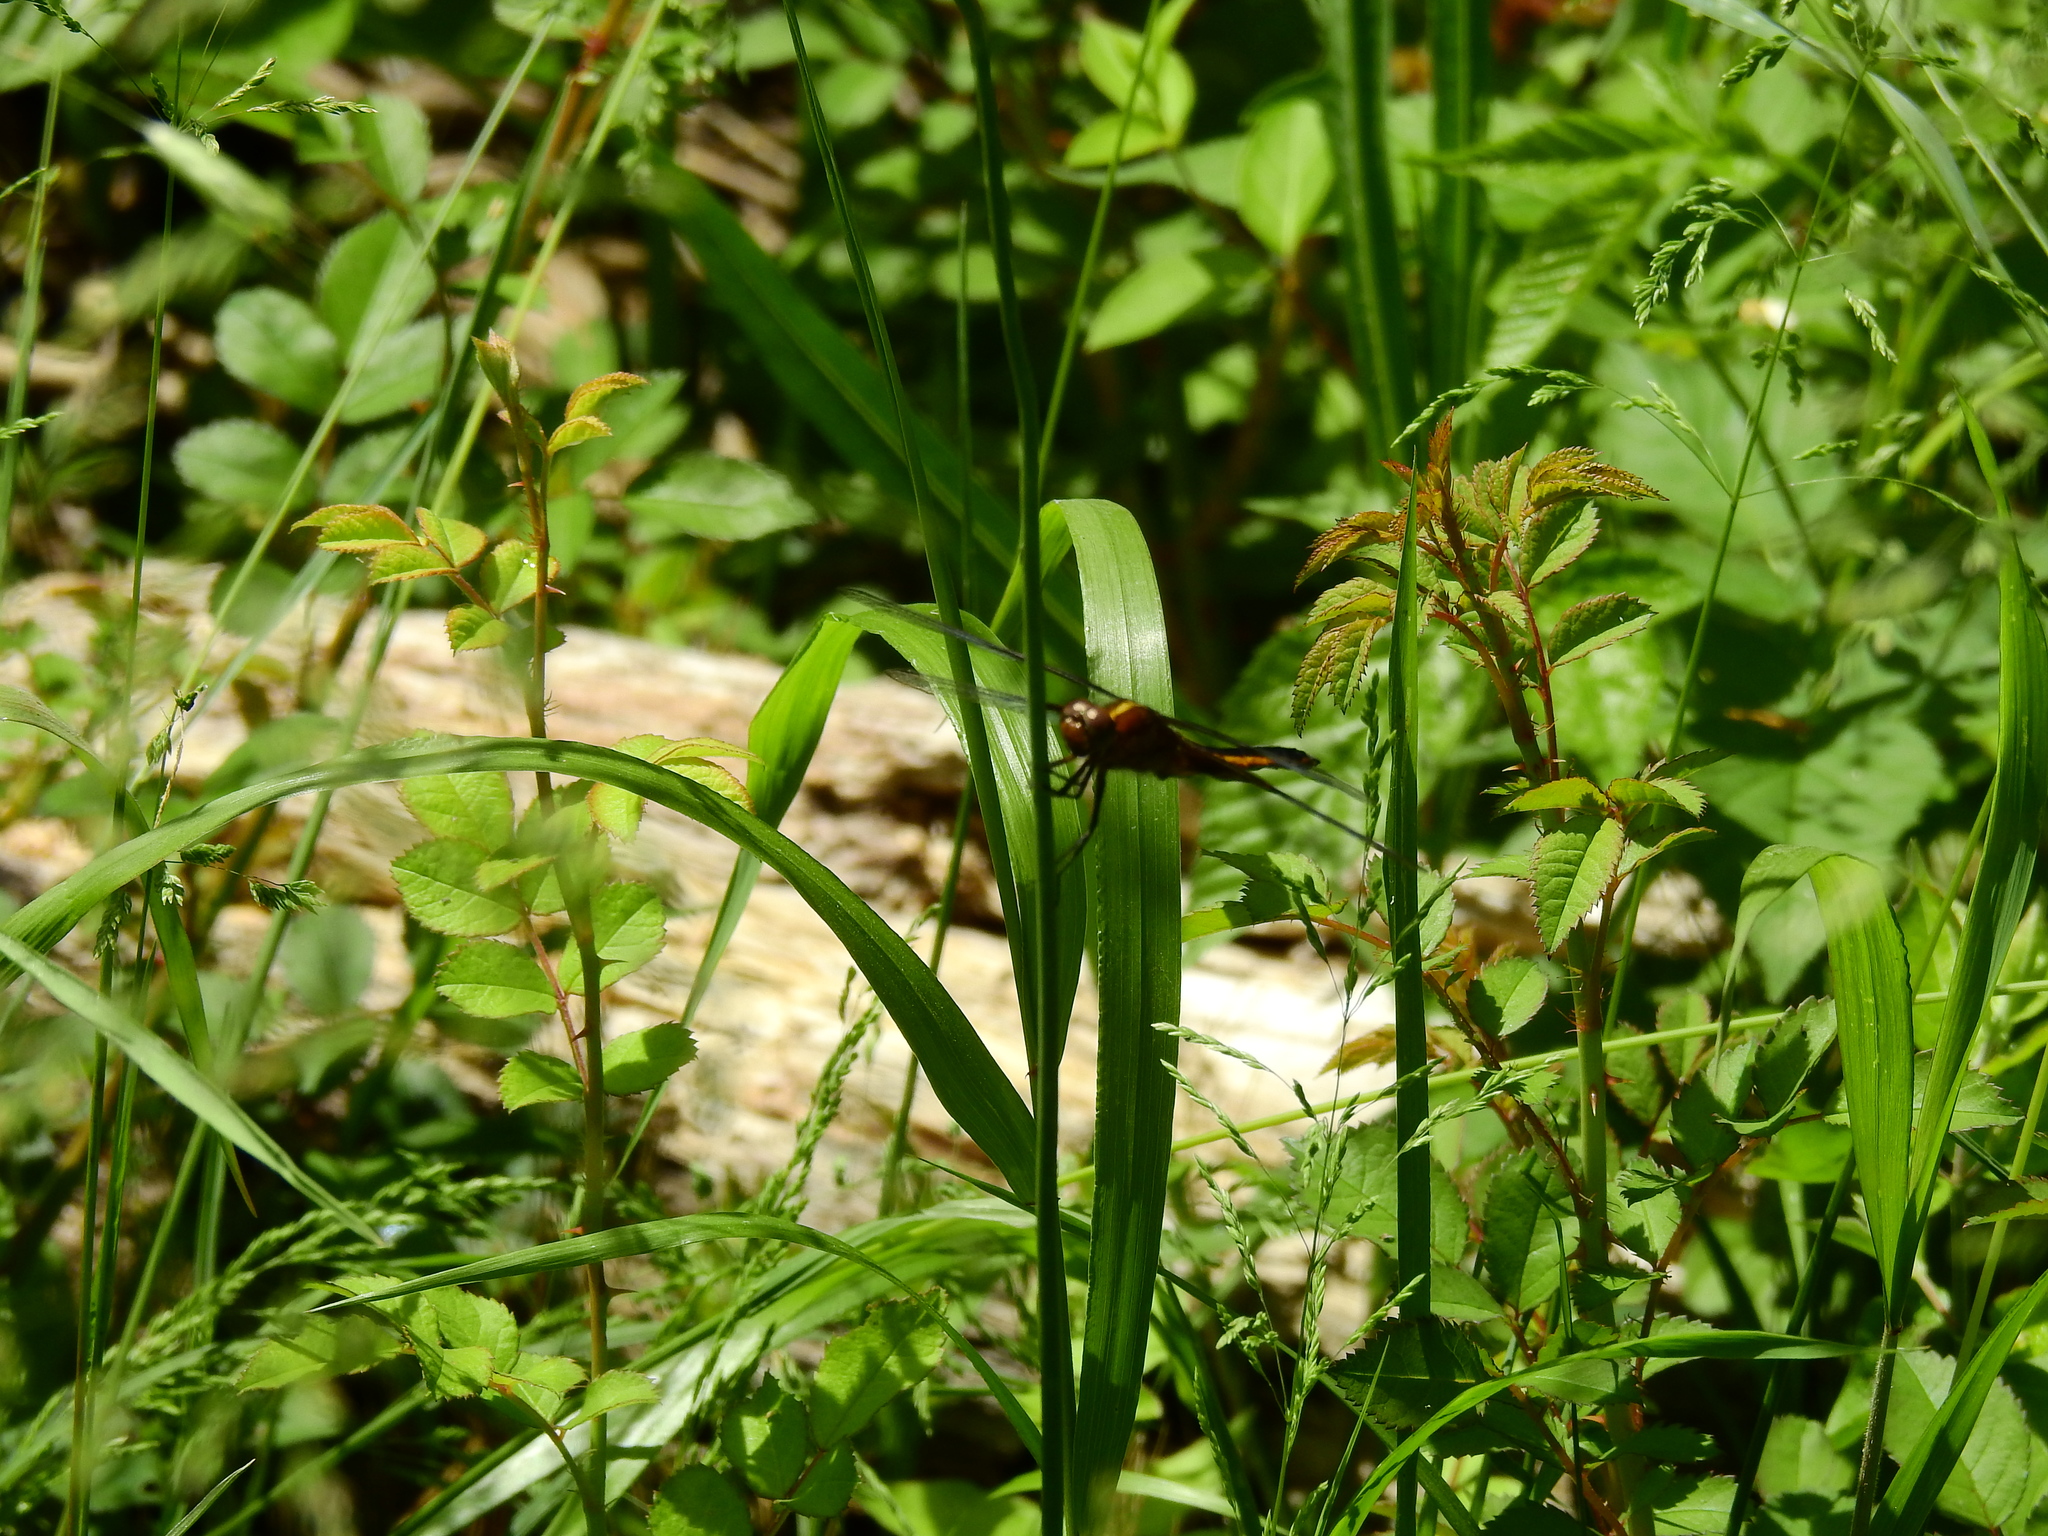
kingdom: Animalia
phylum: Arthropoda
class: Insecta
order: Odonata
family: Libellulidae
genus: Libellula
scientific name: Libellula luctuosa
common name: Widow skimmer
